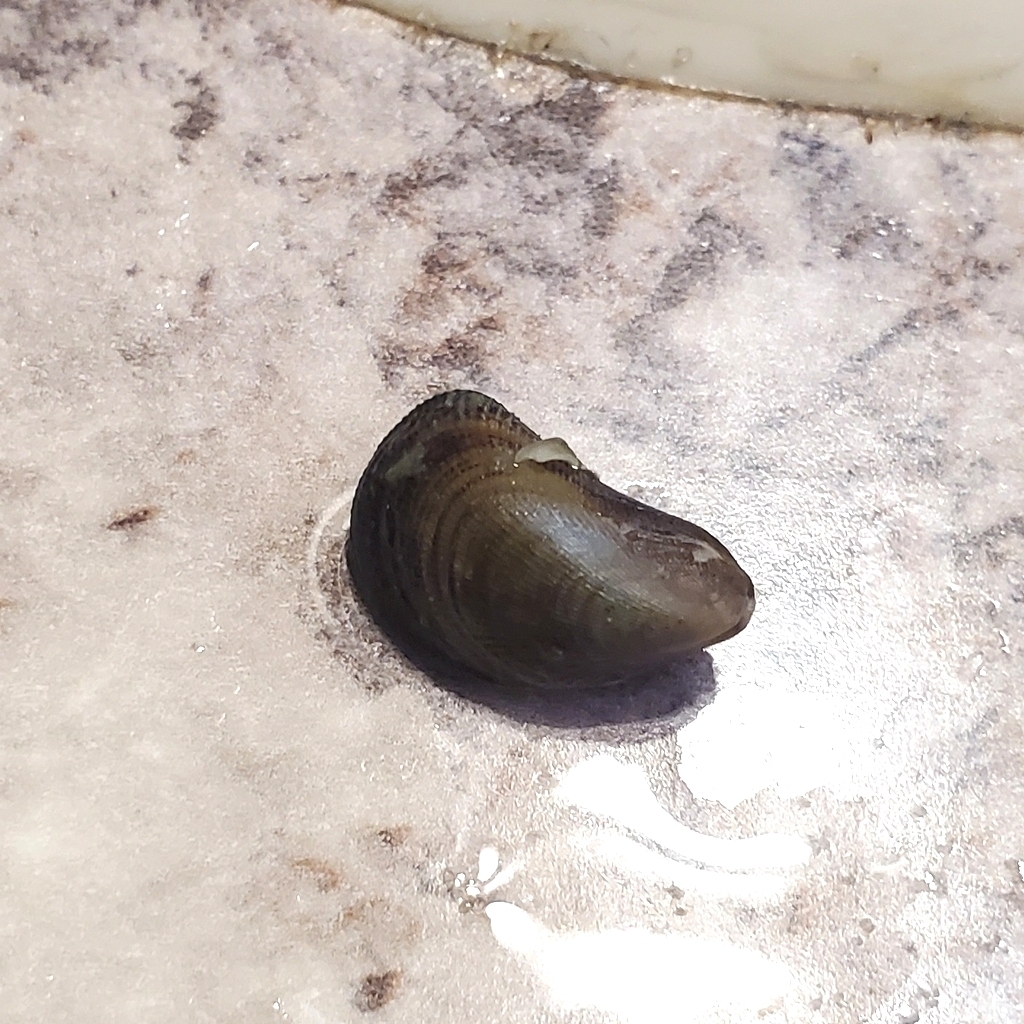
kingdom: Animalia
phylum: Mollusca
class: Bivalvia
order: Mytilida
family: Mytilidae
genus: Ischadium
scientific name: Ischadium recurvum
